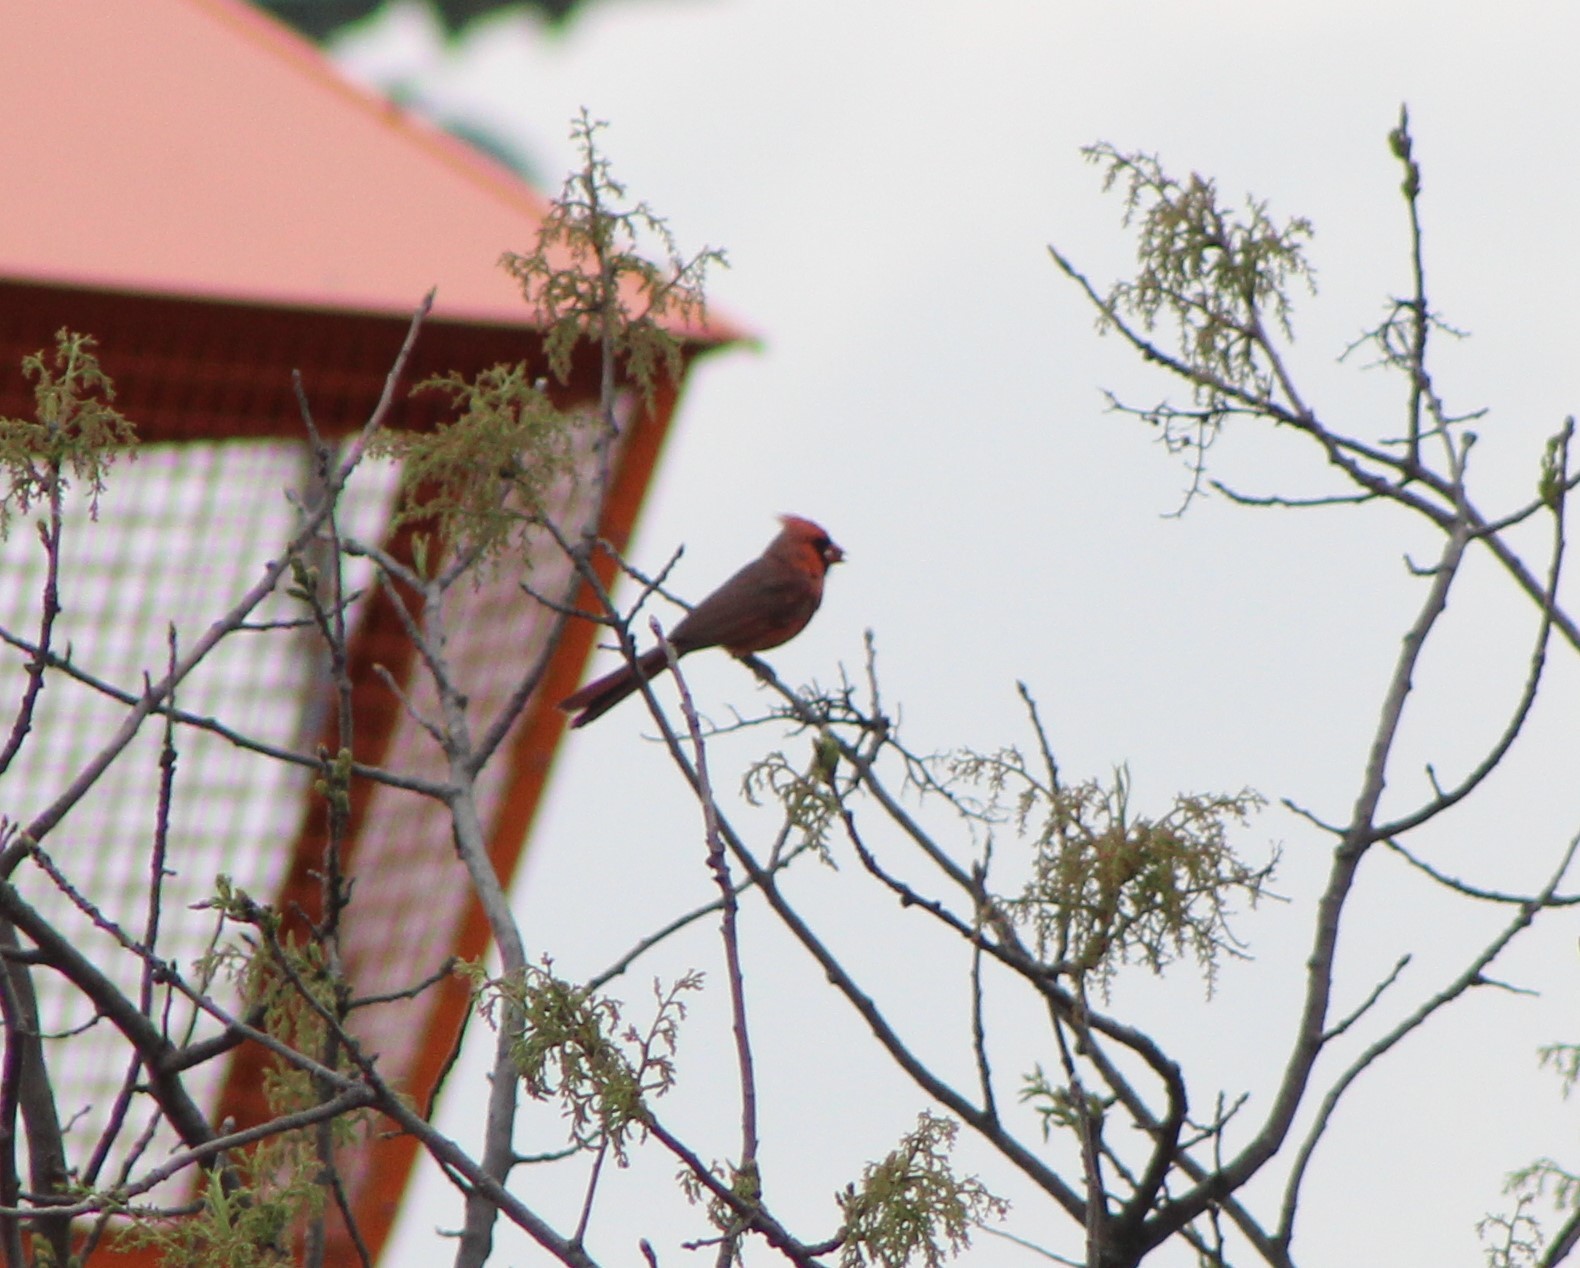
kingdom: Animalia
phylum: Chordata
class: Aves
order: Passeriformes
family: Cardinalidae
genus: Cardinalis
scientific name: Cardinalis cardinalis
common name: Northern cardinal
